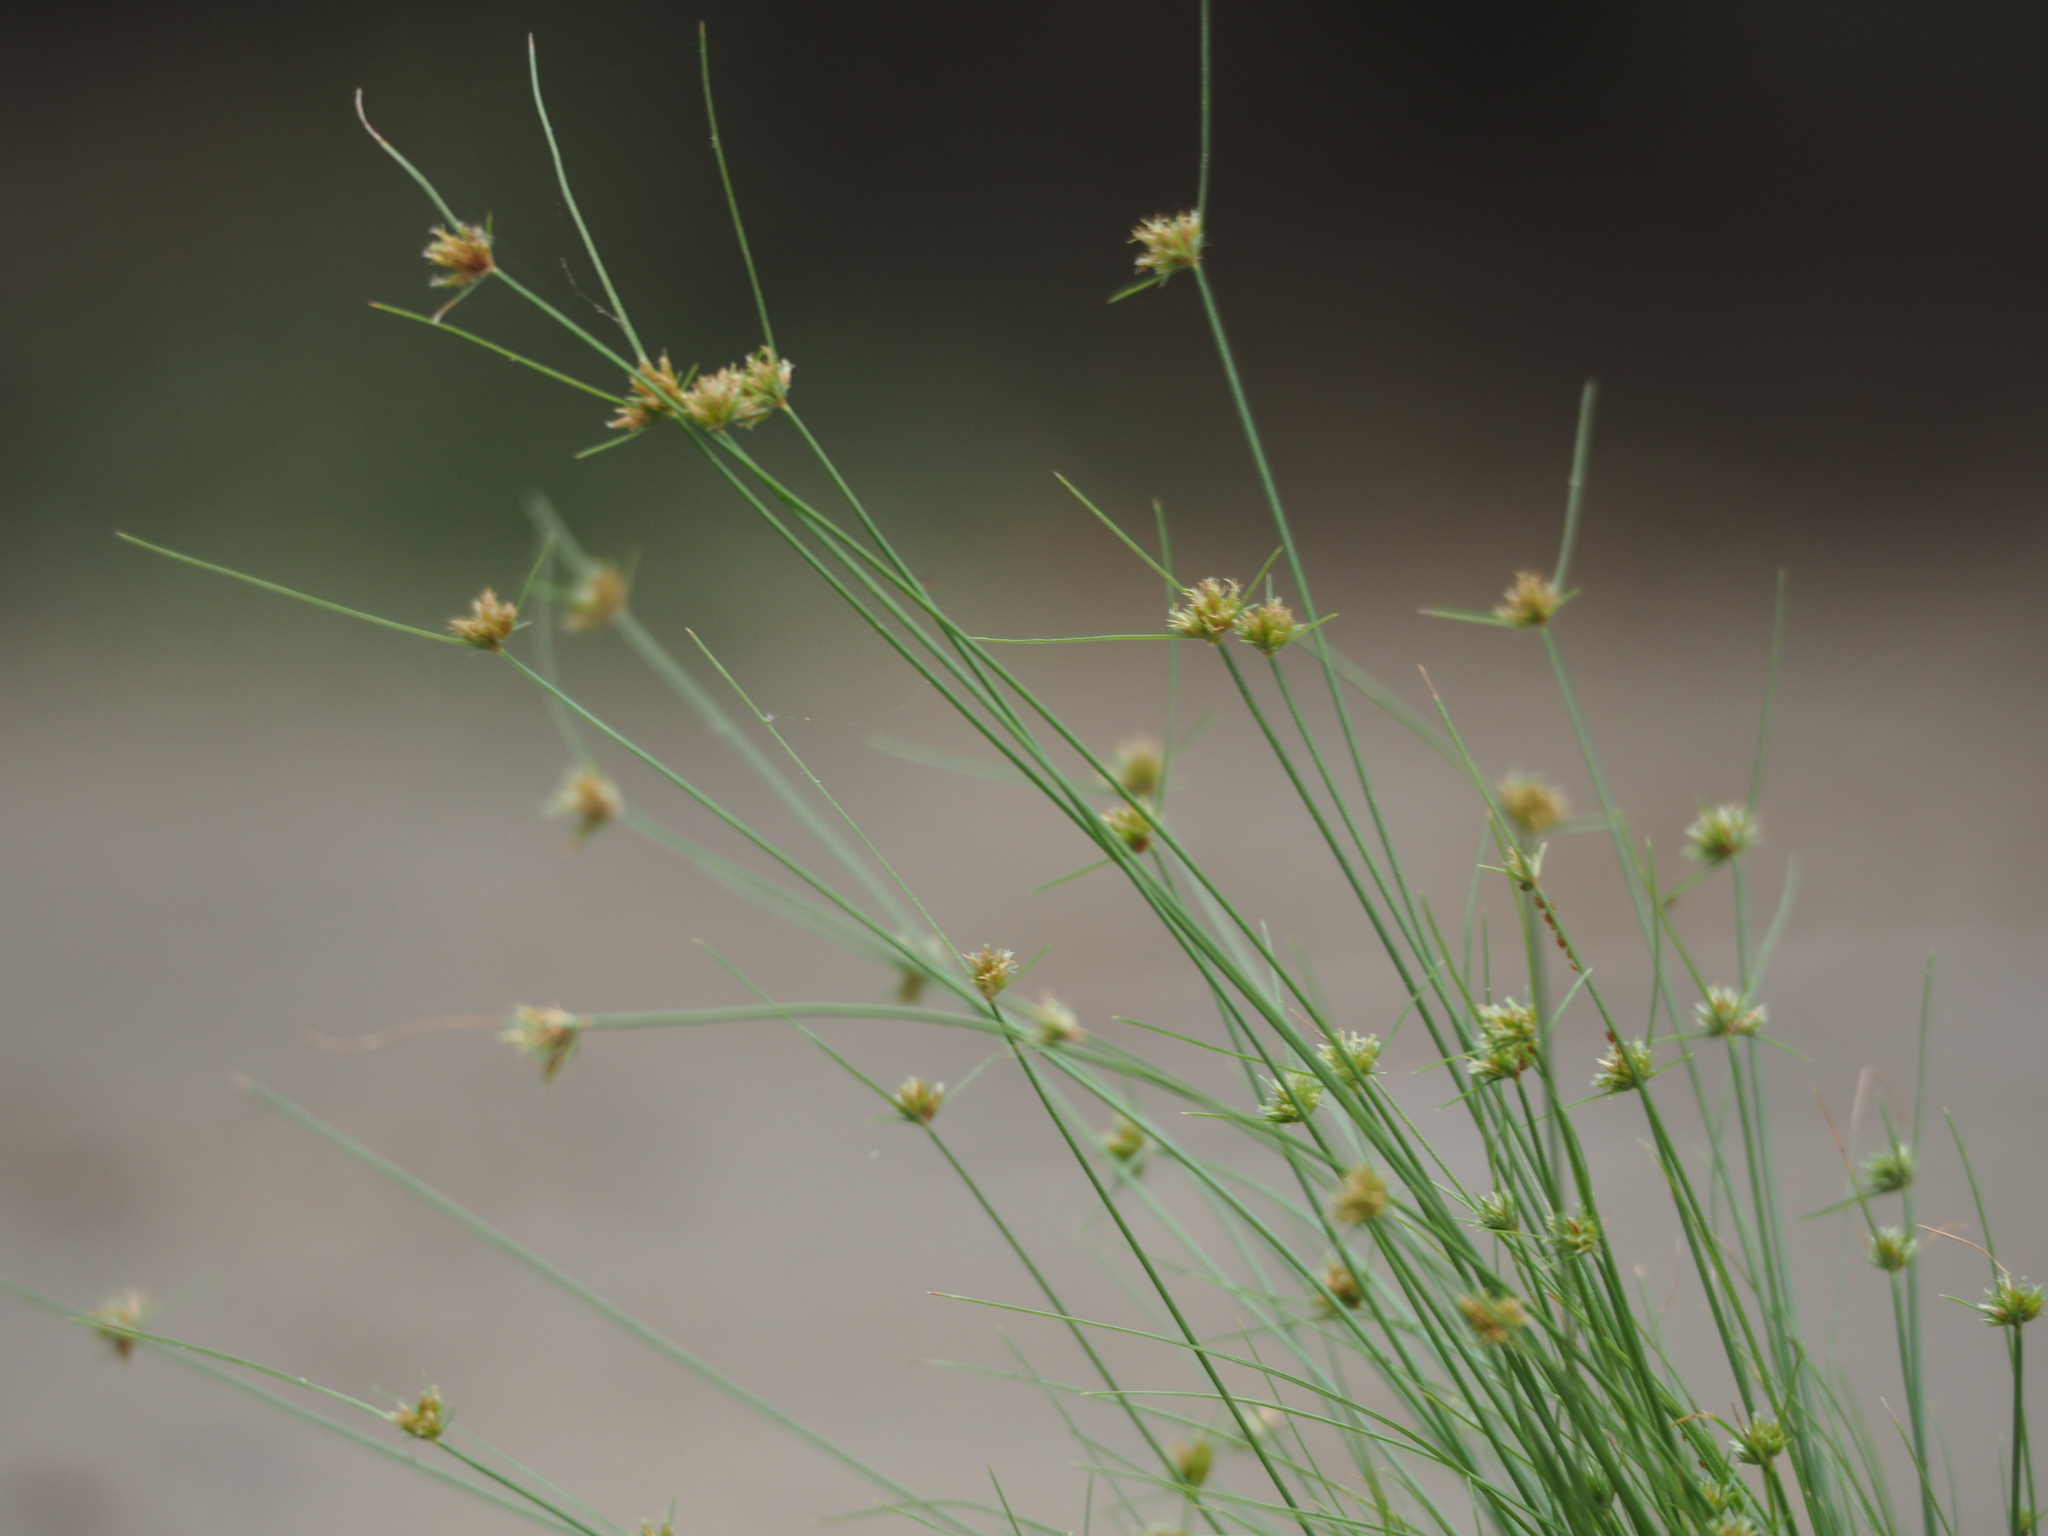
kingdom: Plantae
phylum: Tracheophyta
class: Liliopsida
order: Poales
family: Cyperaceae
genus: Bulbostylis
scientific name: Bulbostylis barbata
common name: Watergrass
